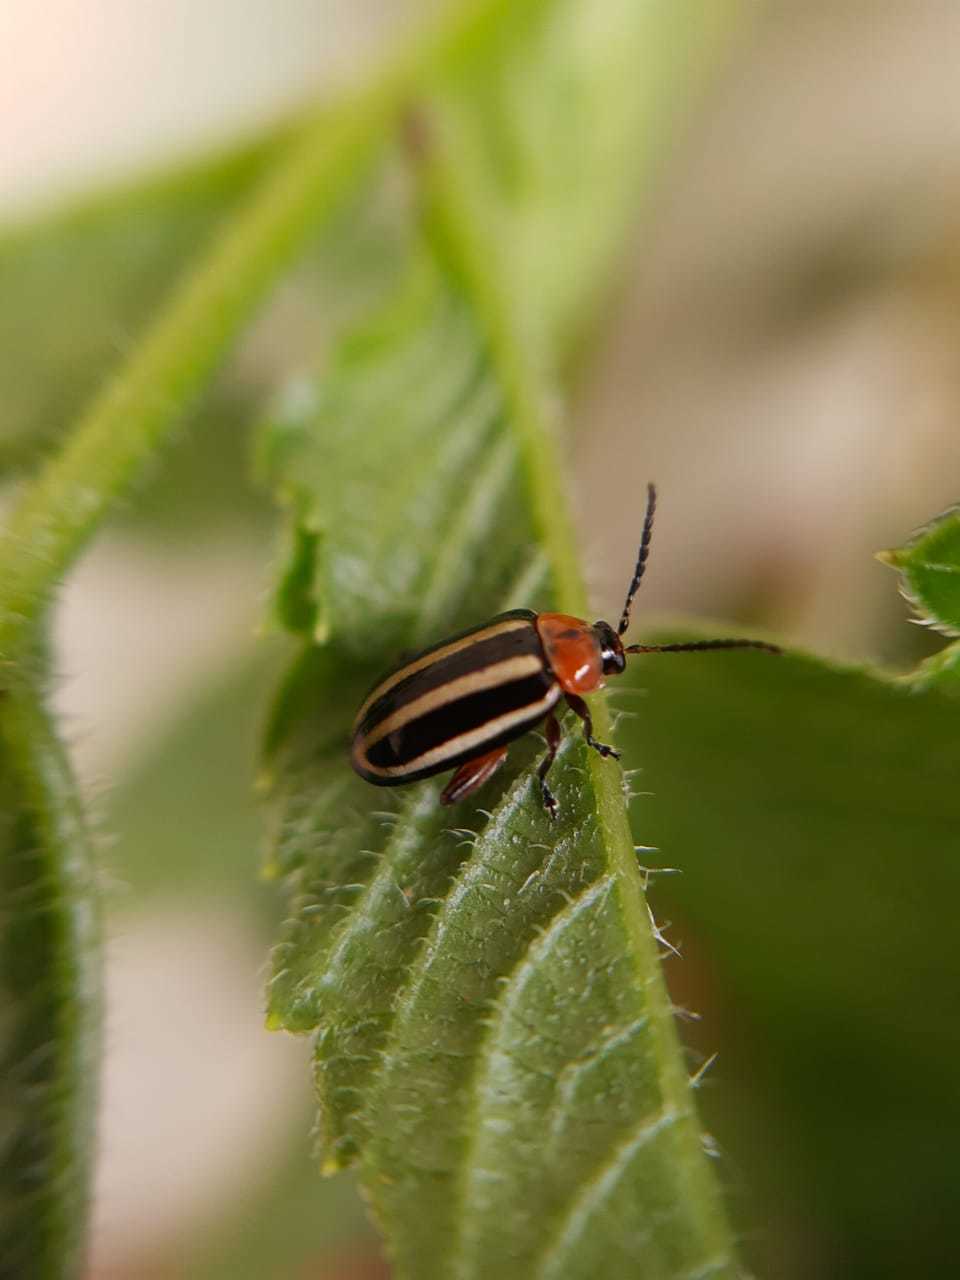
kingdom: Animalia
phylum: Arthropoda
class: Insecta
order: Coleoptera
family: Chrysomelidae
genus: Disonycha
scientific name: Disonycha glabrata
